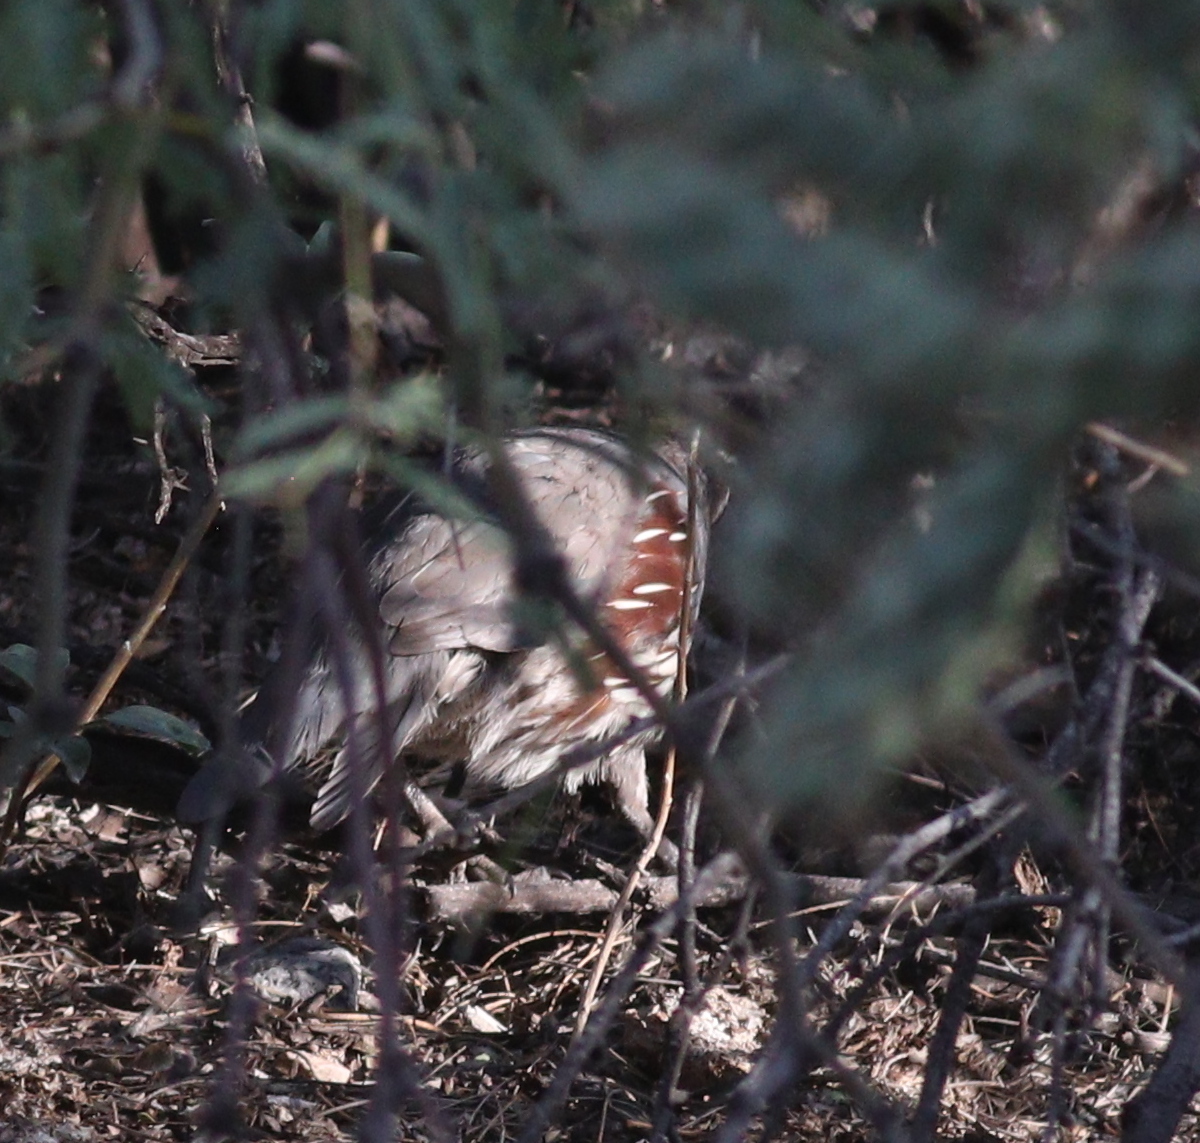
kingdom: Animalia
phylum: Chordata
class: Aves
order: Galliformes
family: Odontophoridae
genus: Callipepla
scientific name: Callipepla gambelii
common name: Gambel's quail
